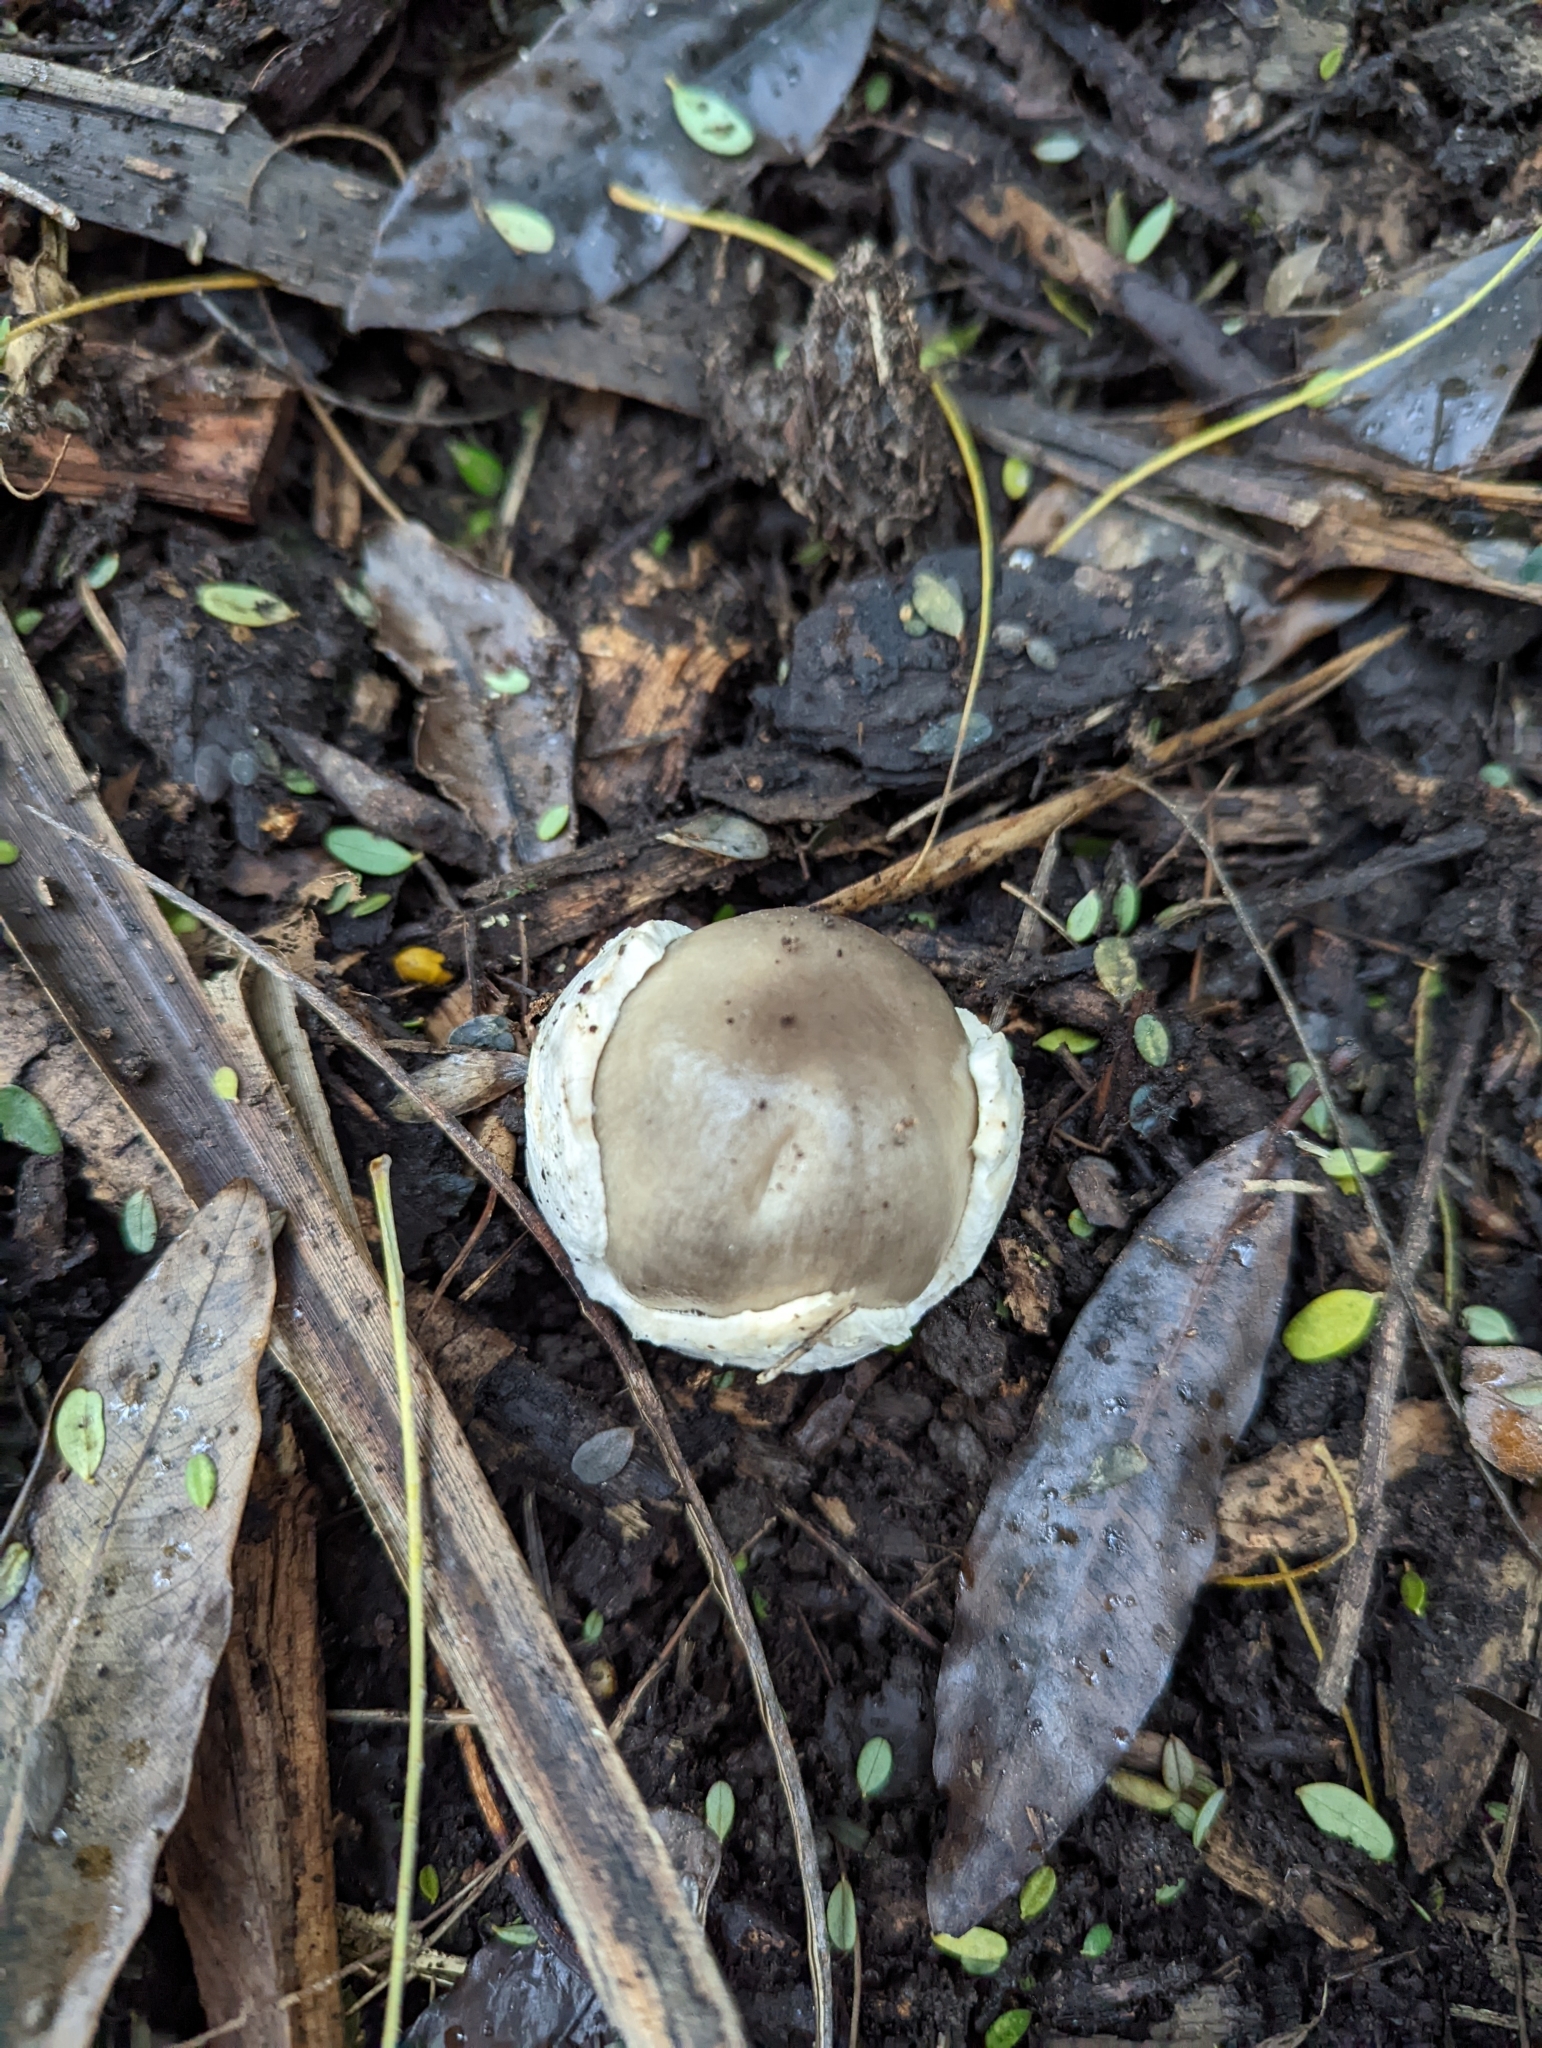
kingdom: Fungi
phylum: Basidiomycota
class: Agaricomycetes
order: Agaricales
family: Pluteaceae
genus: Volvopluteus
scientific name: Volvopluteus gloiocephalus
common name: Stubble rosegill
